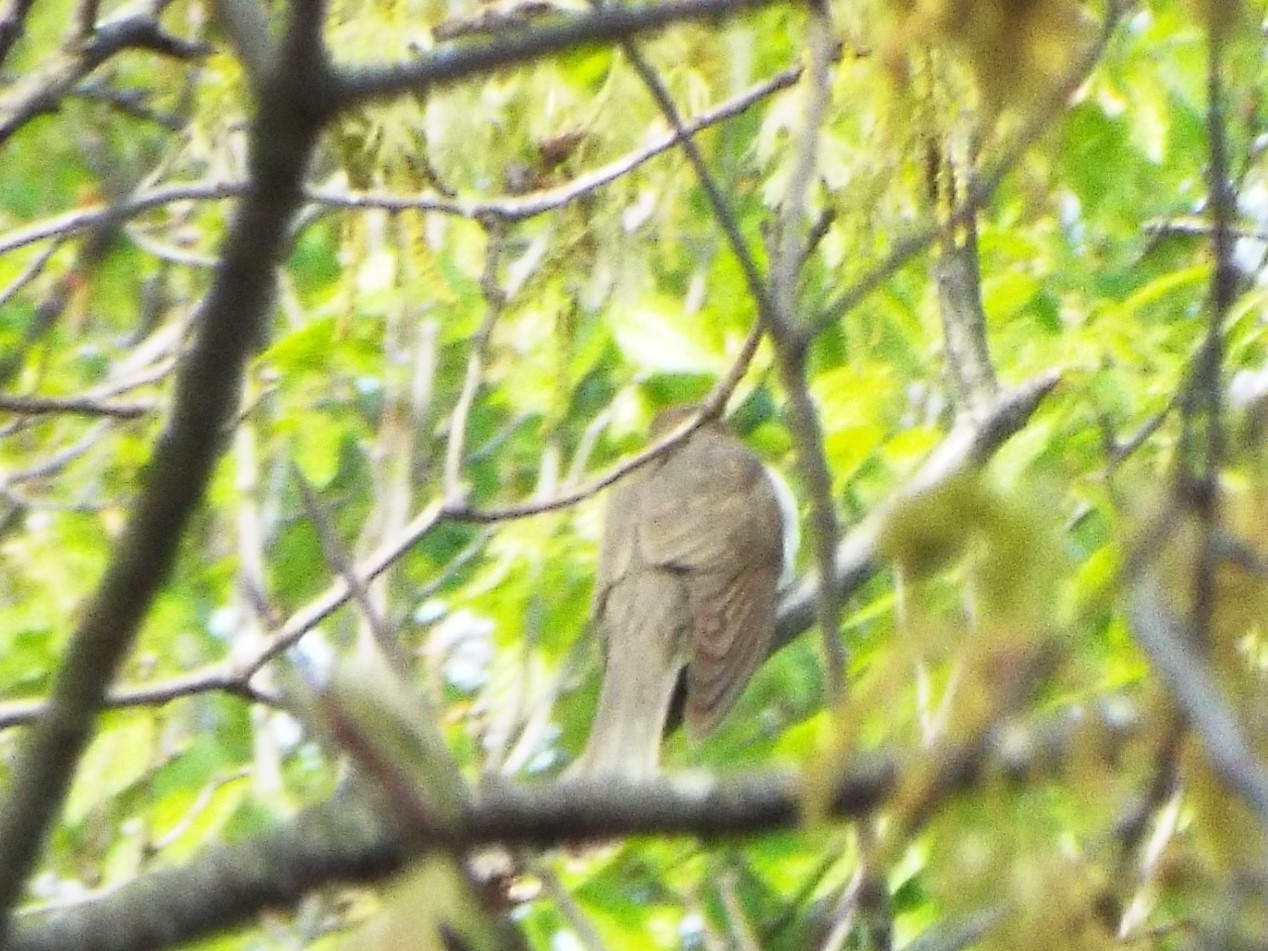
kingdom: Animalia
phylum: Chordata
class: Aves
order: Cuculiformes
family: Cuculidae
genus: Coccyzus
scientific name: Coccyzus erythropthalmus
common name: Black-billed cuckoo
